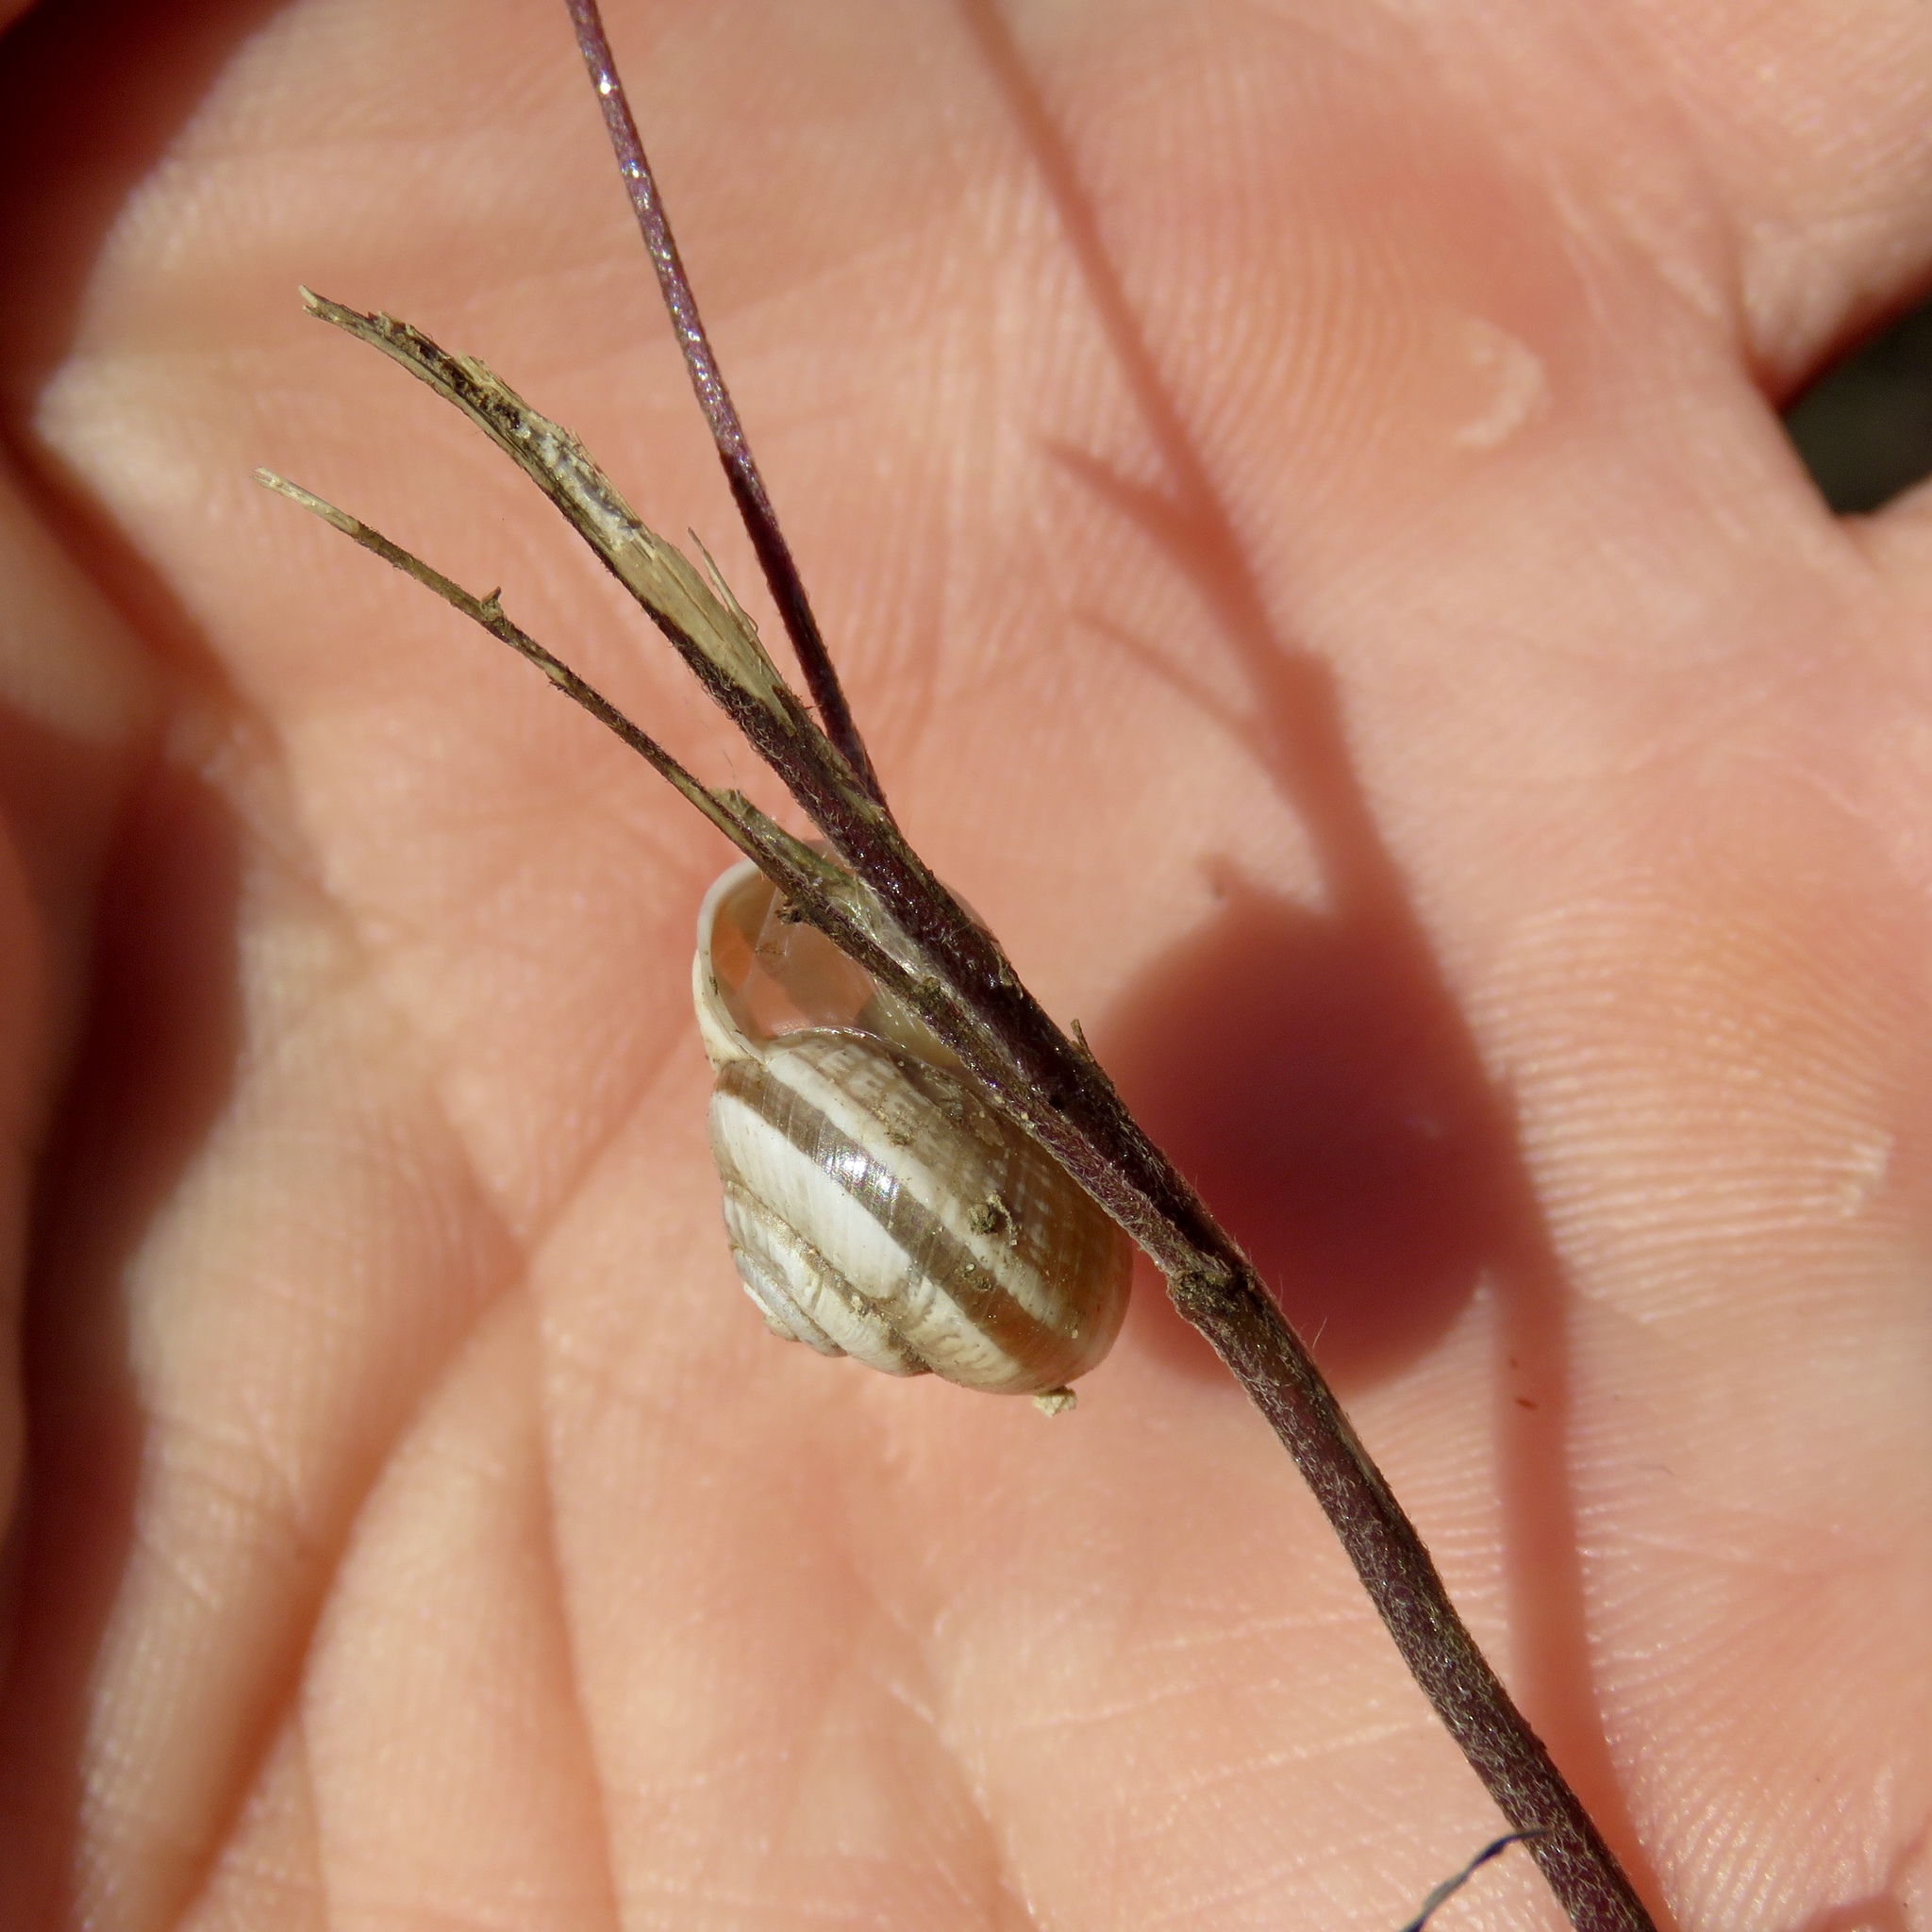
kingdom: Animalia
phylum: Mollusca
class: Gastropoda
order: Stylommatophora
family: Polygyridae
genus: Praticolella
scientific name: Praticolella mexicana
